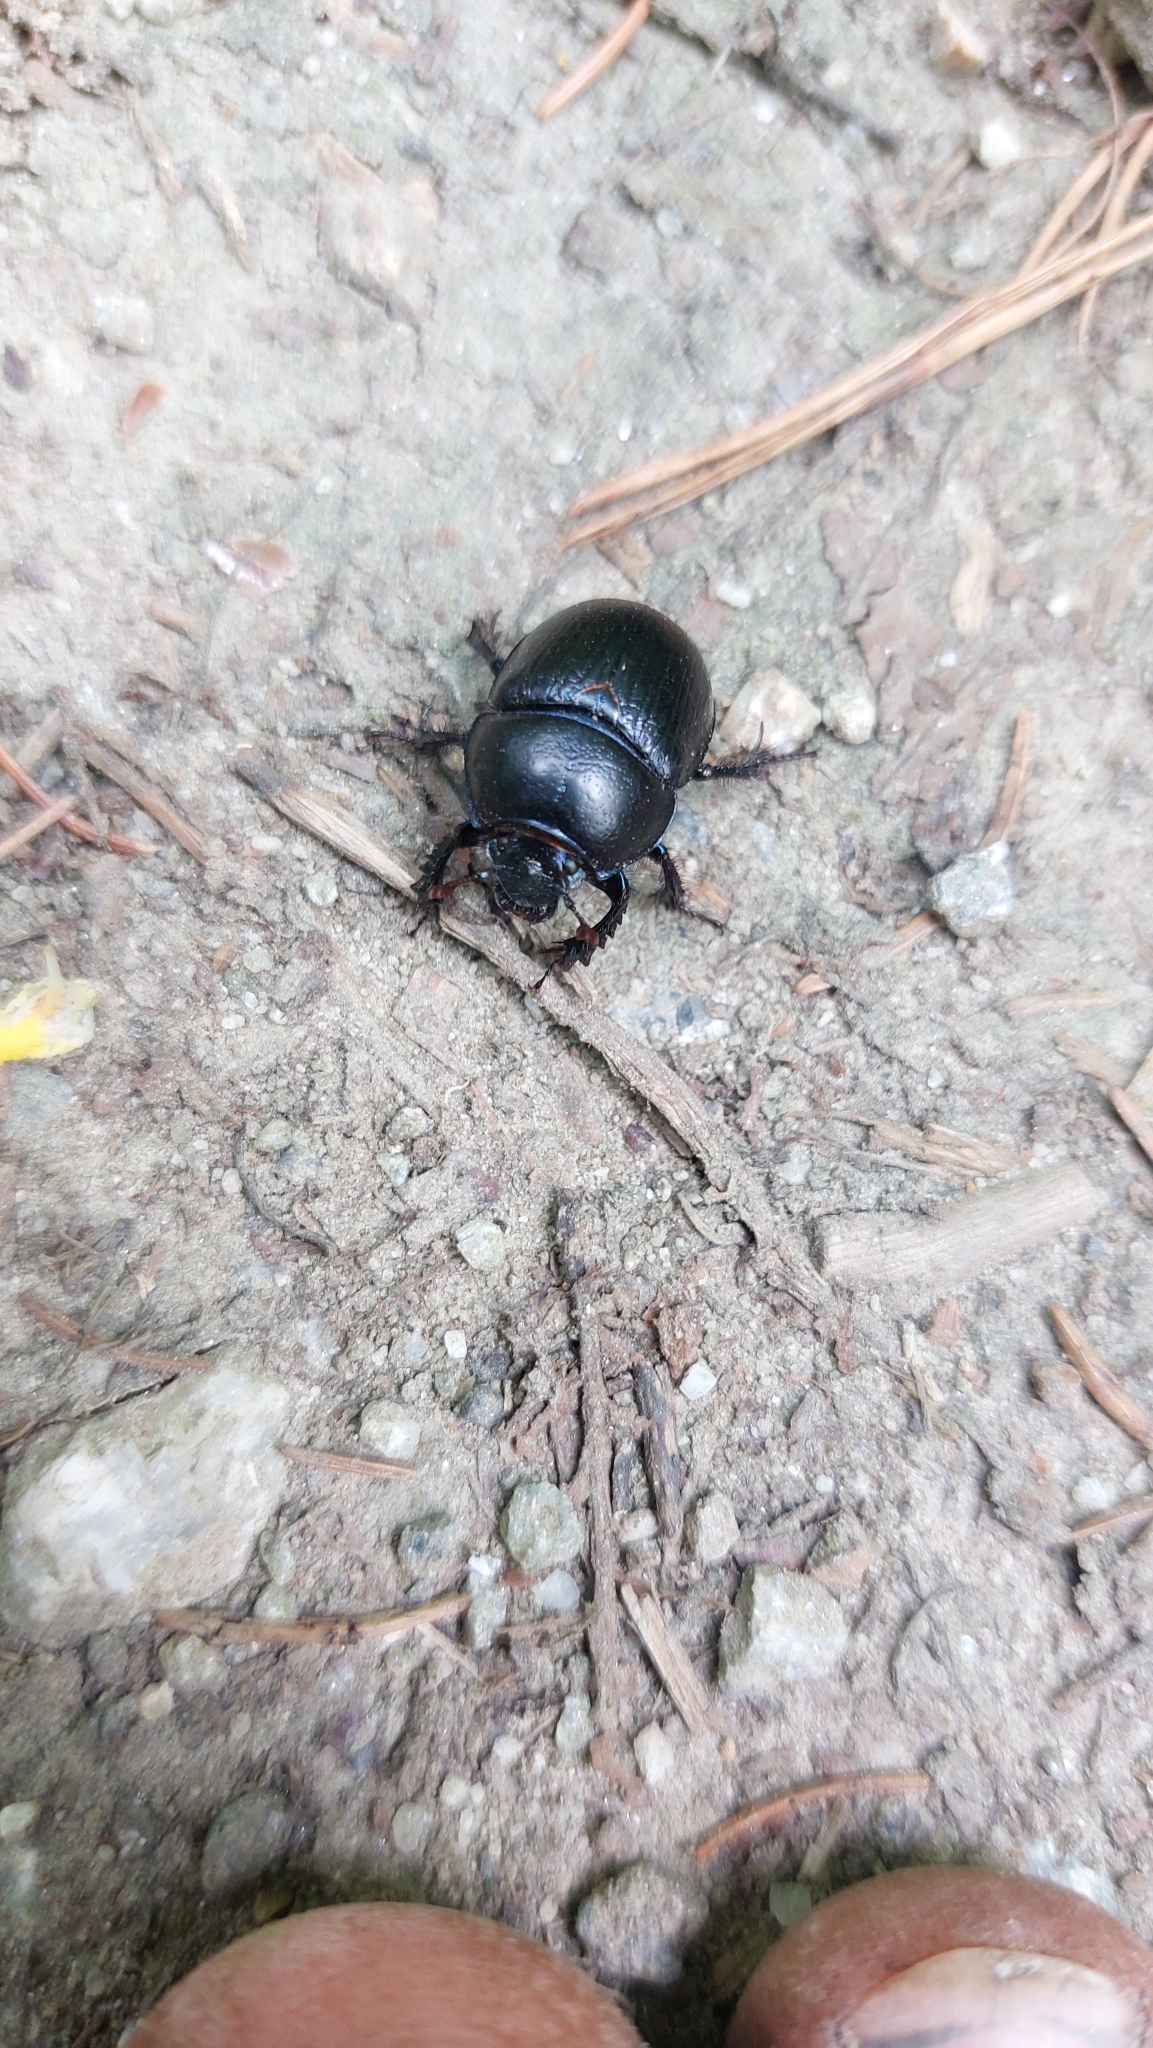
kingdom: Animalia
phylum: Arthropoda
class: Insecta
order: Coleoptera
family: Geotrupidae
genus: Anoplotrupes
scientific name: Anoplotrupes stercorosus
